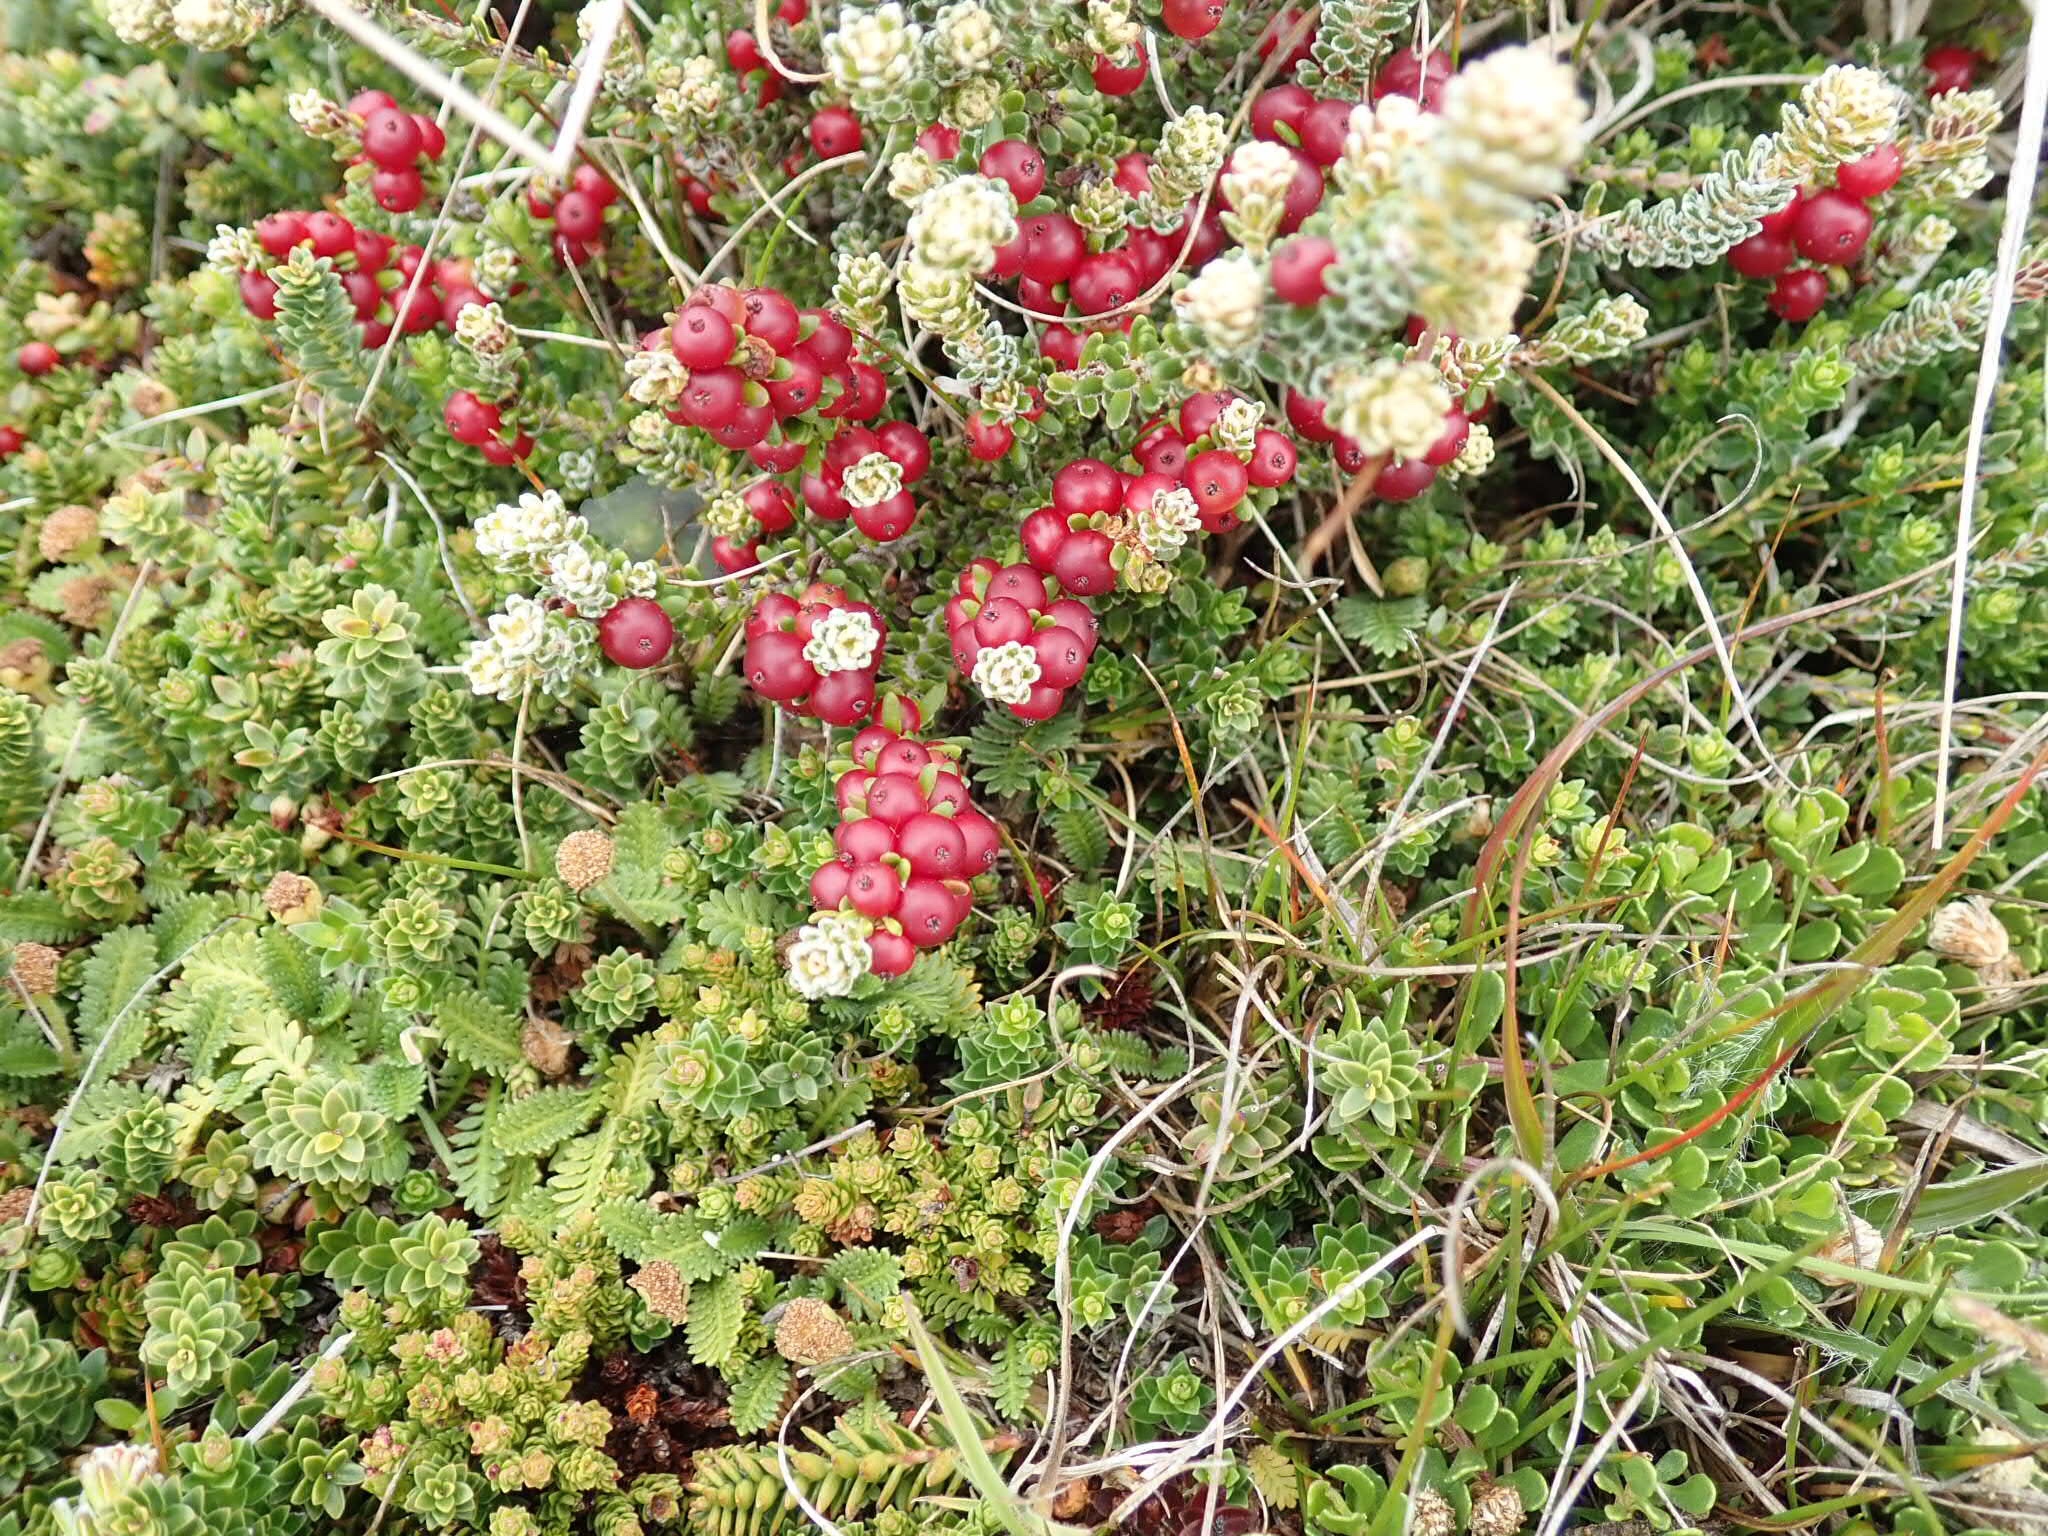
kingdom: Plantae
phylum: Tracheophyta
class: Magnoliopsida
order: Ericales
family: Ericaceae
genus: Empetrum
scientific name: Empetrum rubrum
